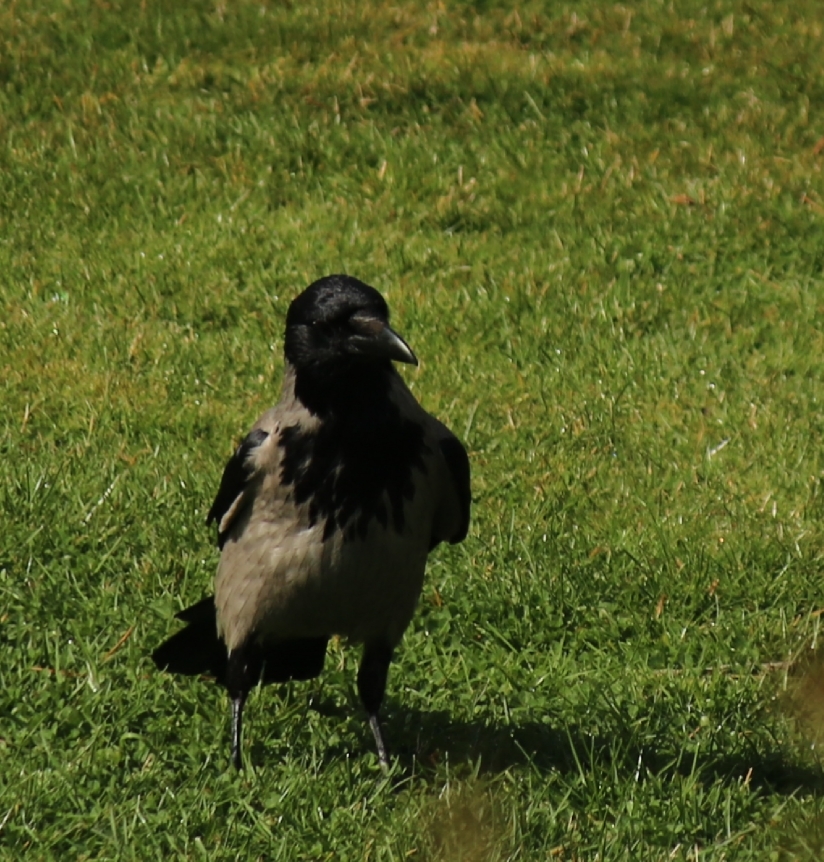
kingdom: Animalia
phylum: Chordata
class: Aves
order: Passeriformes
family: Corvidae
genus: Corvus
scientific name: Corvus cornix
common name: Hooded crow
